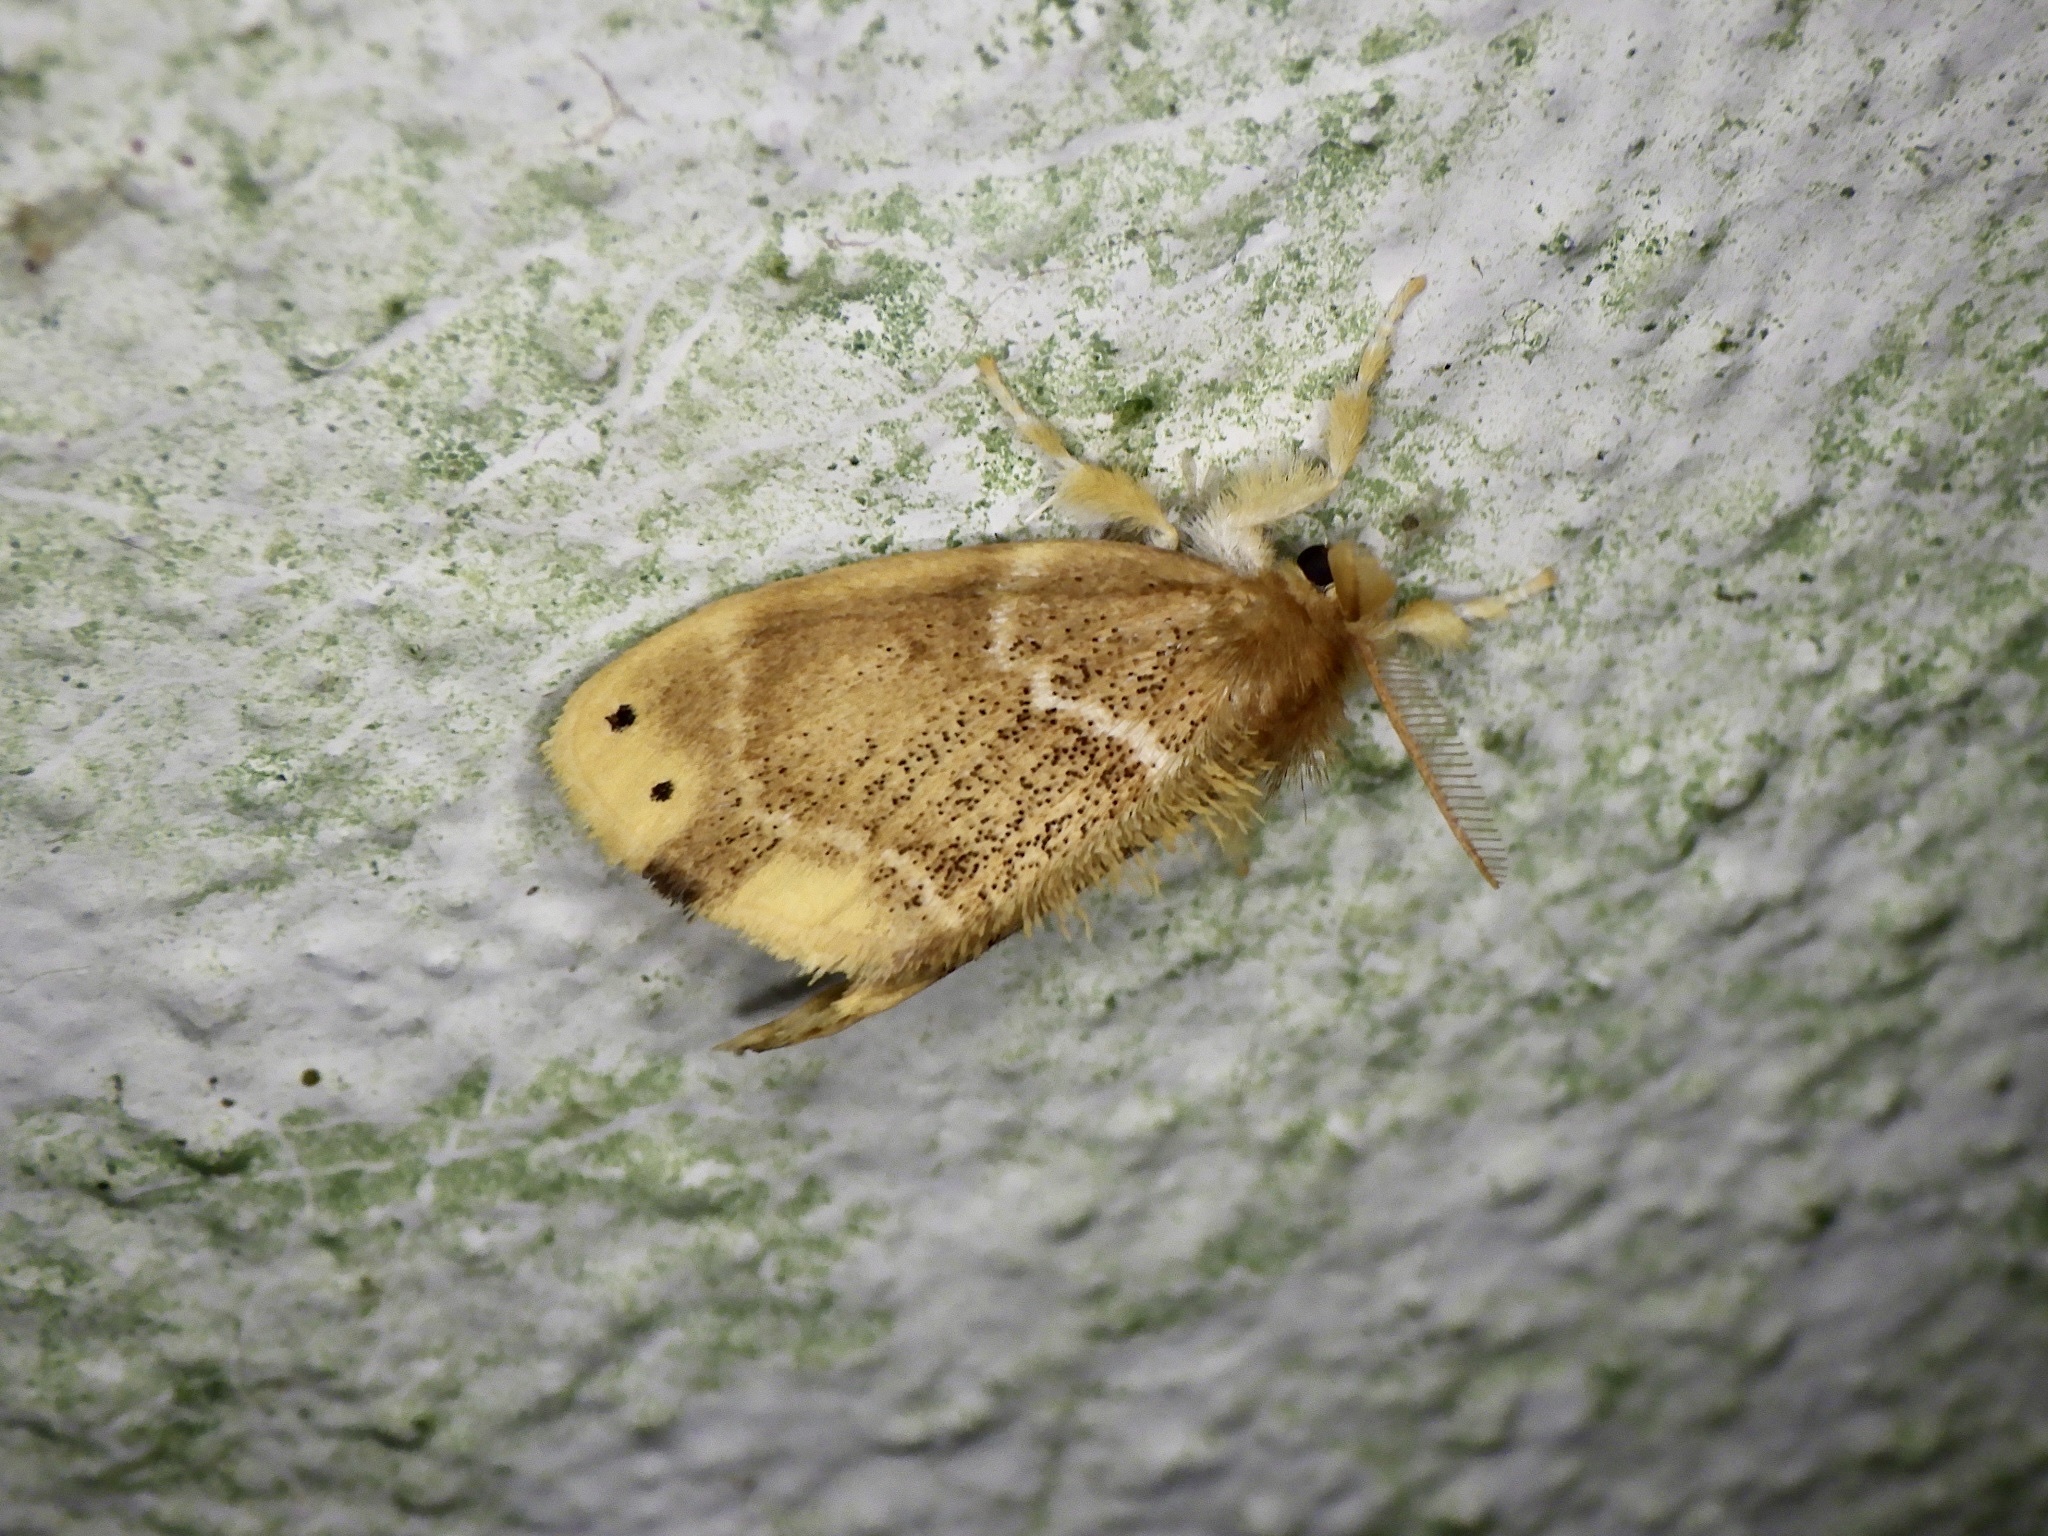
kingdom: Animalia
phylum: Arthropoda
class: Insecta
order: Lepidoptera
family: Erebidae
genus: Euproctis
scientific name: Euproctis pseudoconspersa
